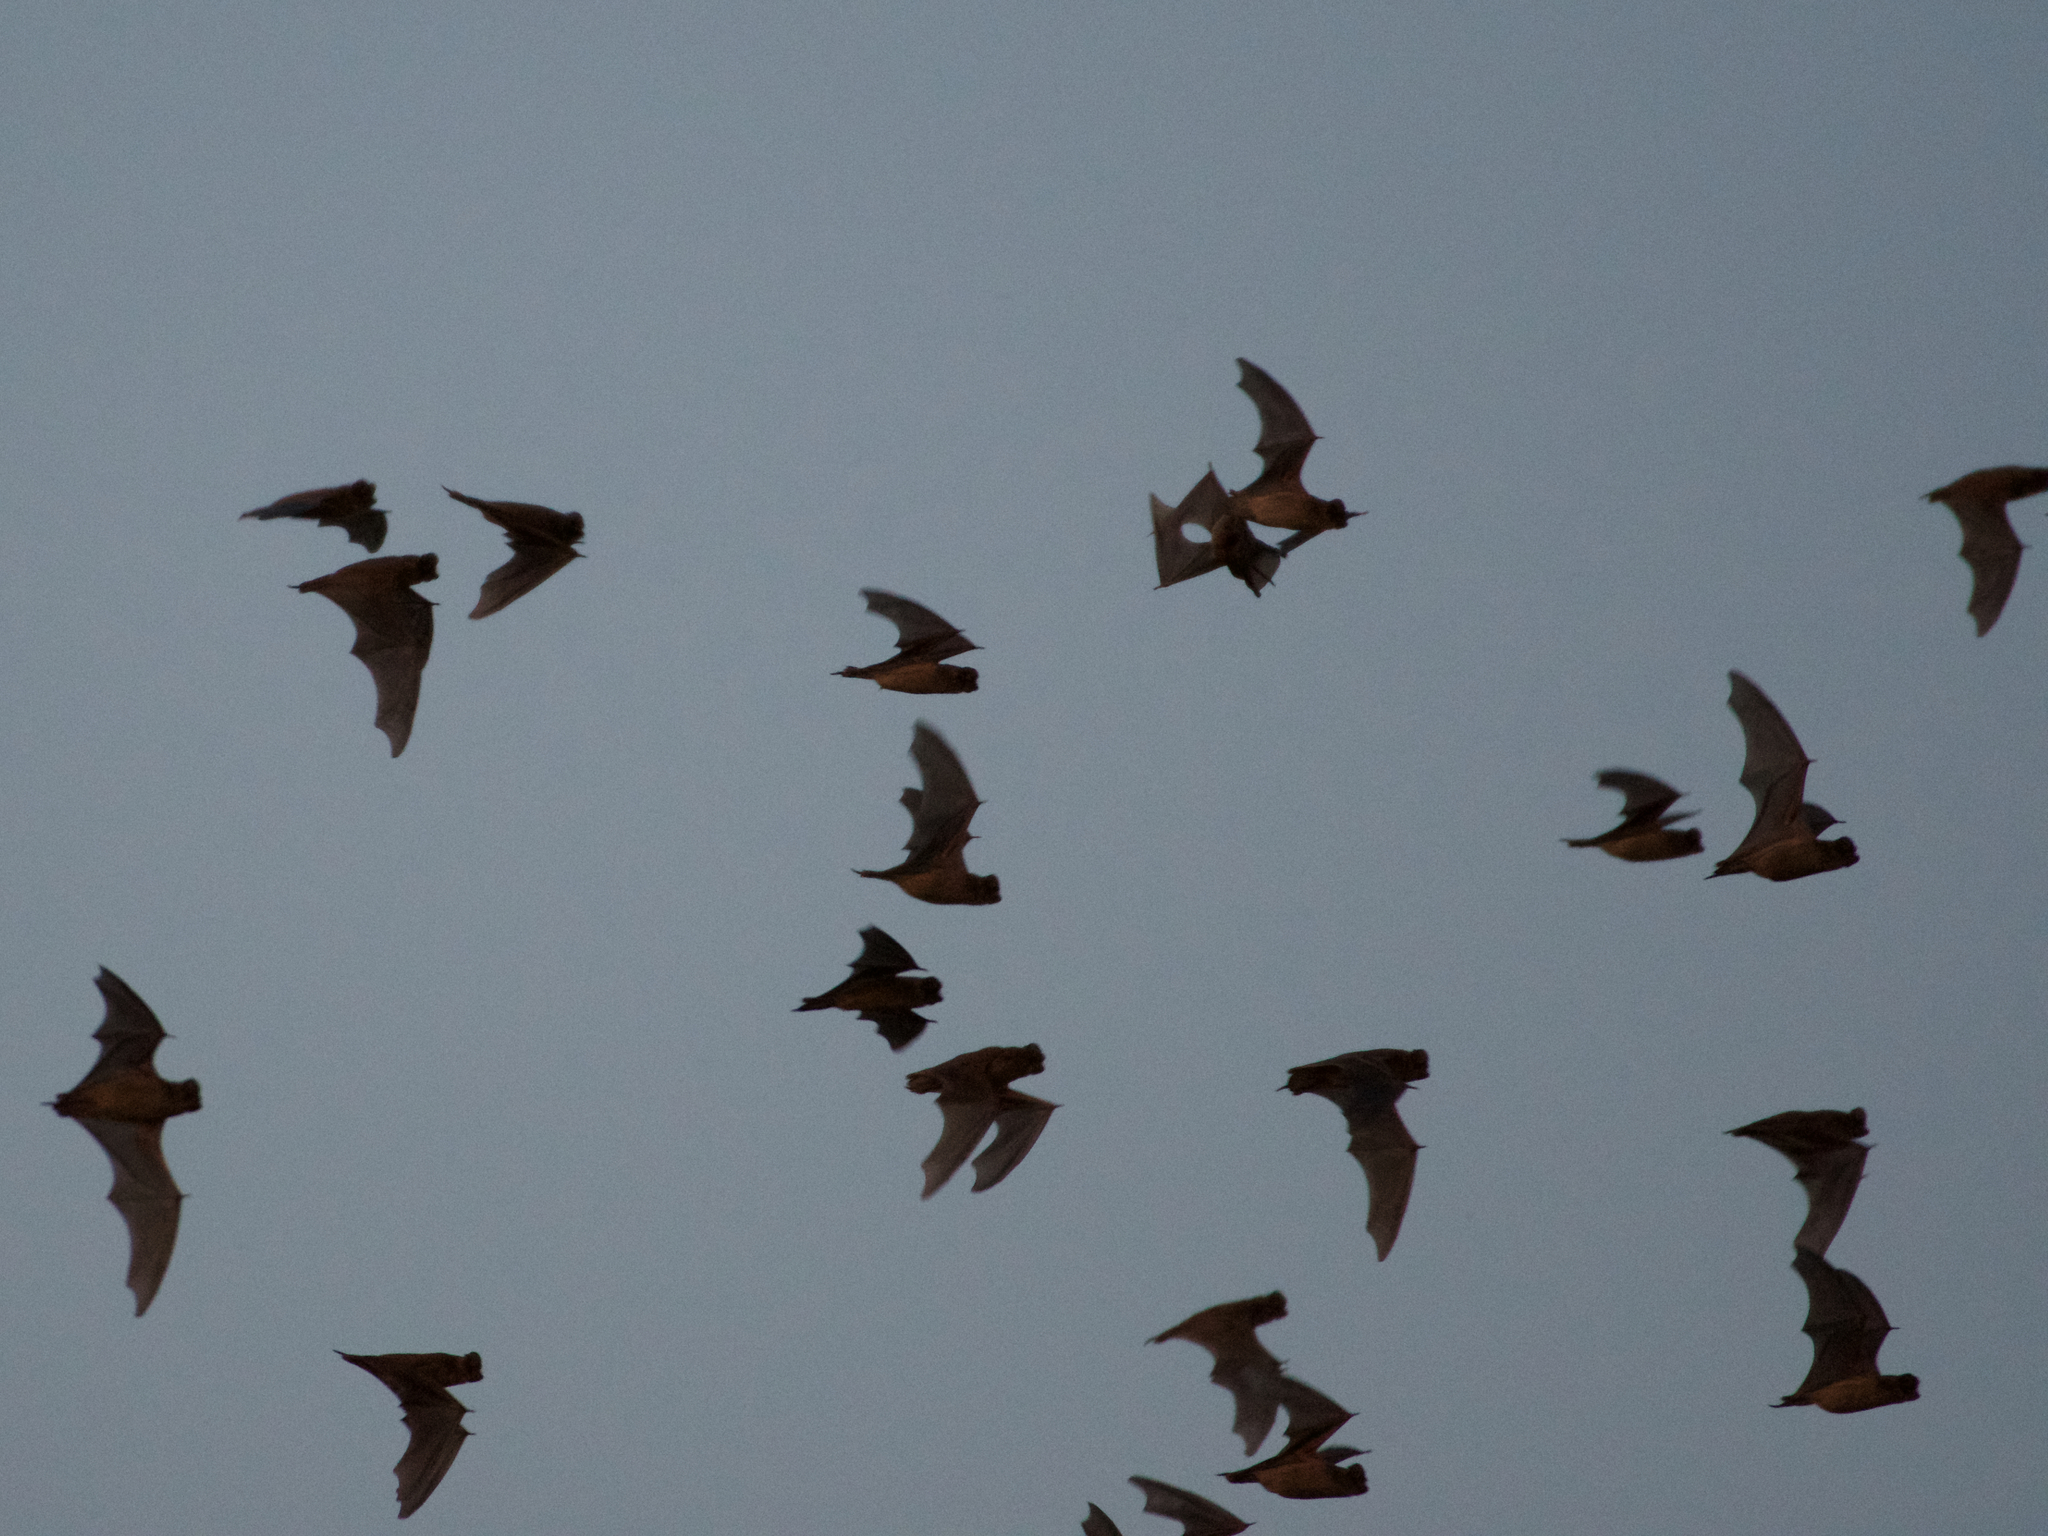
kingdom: Animalia
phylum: Chordata
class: Mammalia
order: Chiroptera
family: Molossidae
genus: Tadarida
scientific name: Tadarida brasiliensis
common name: Mexican free-tailed bat
